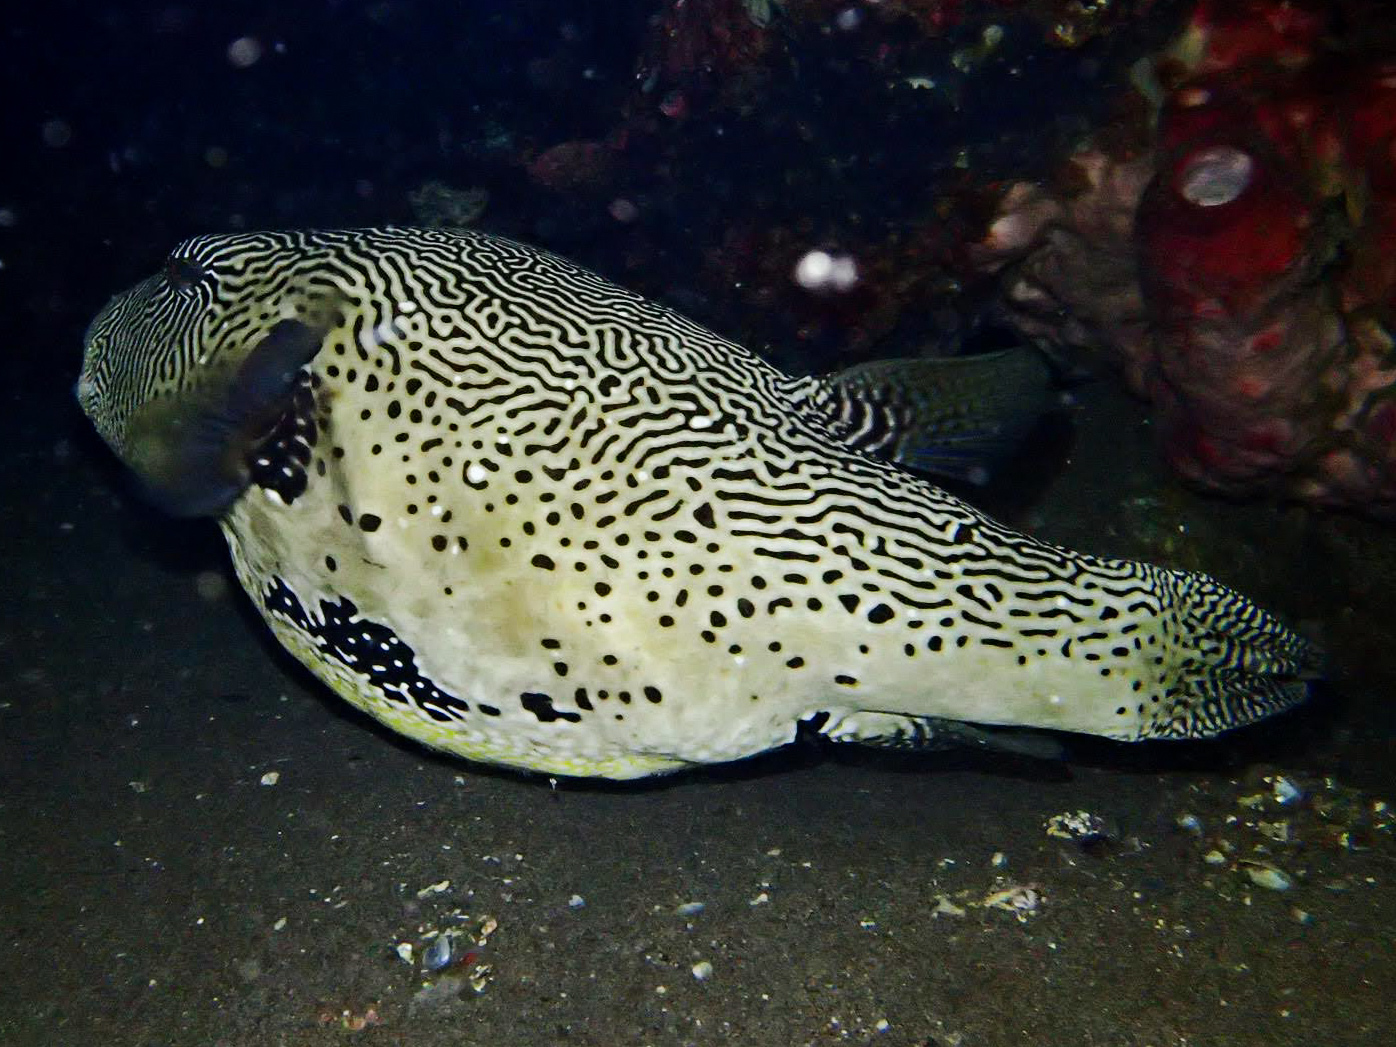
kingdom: Animalia
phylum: Chordata
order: Tetraodontiformes
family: Tetraodontidae
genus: Arothron
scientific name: Arothron mappa
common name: Map blaasop
